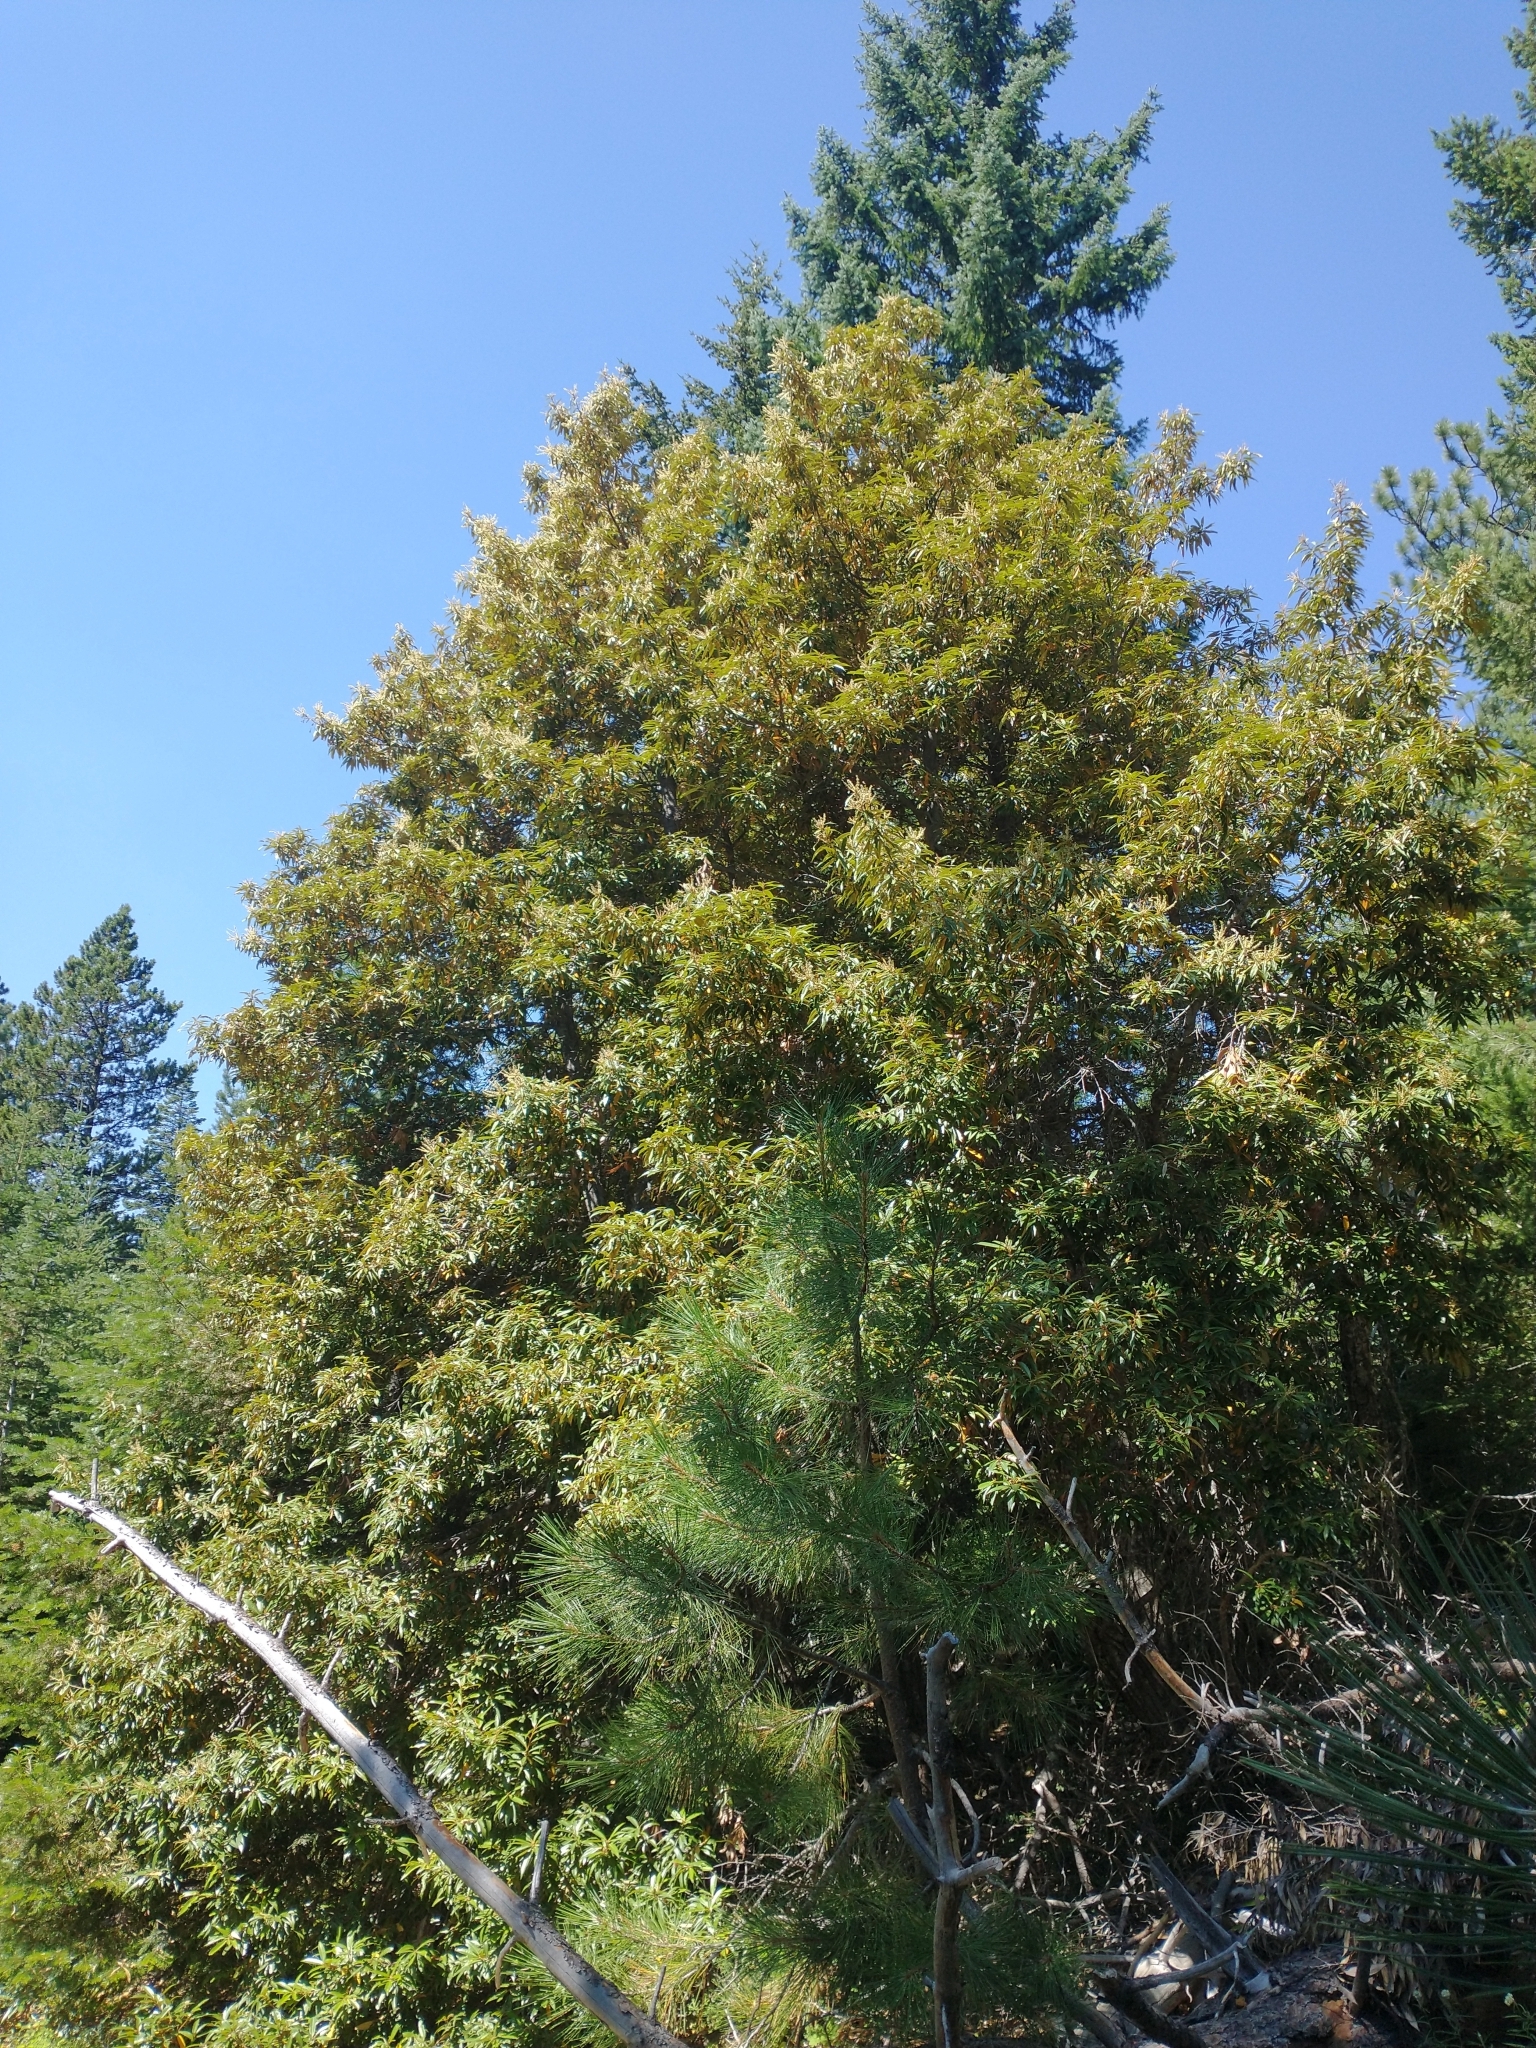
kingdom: Plantae
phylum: Tracheophyta
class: Magnoliopsida
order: Fagales
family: Fagaceae
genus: Chrysolepis
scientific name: Chrysolepis chrysophylla
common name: Giant chinquapin
